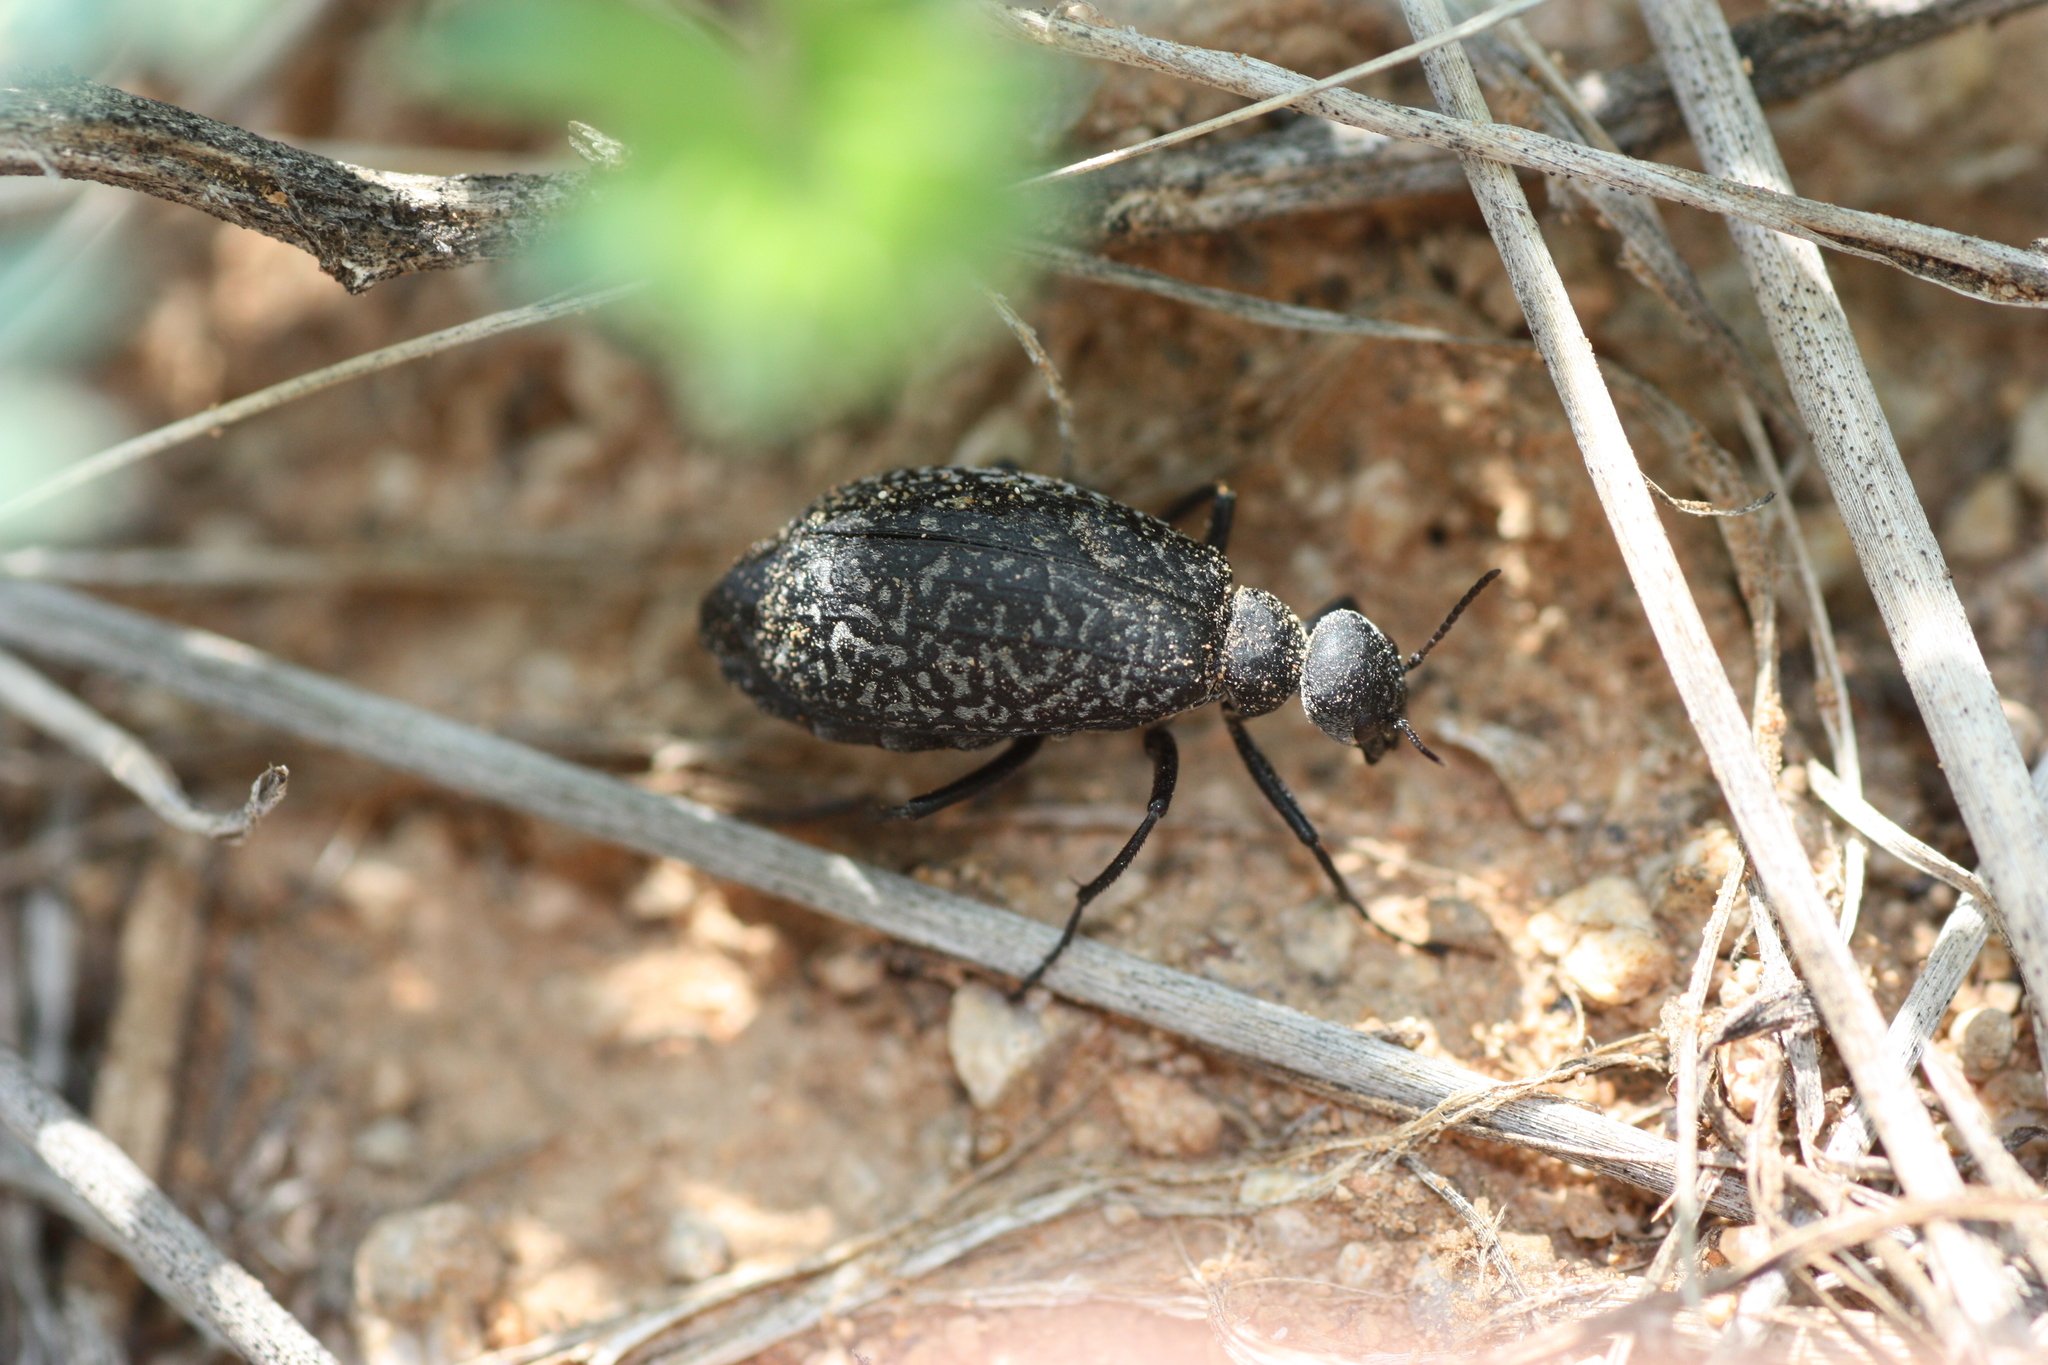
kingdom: Animalia
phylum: Arthropoda
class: Insecta
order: Coleoptera
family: Meloidae
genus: Phodaga
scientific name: Phodaga marmorata
